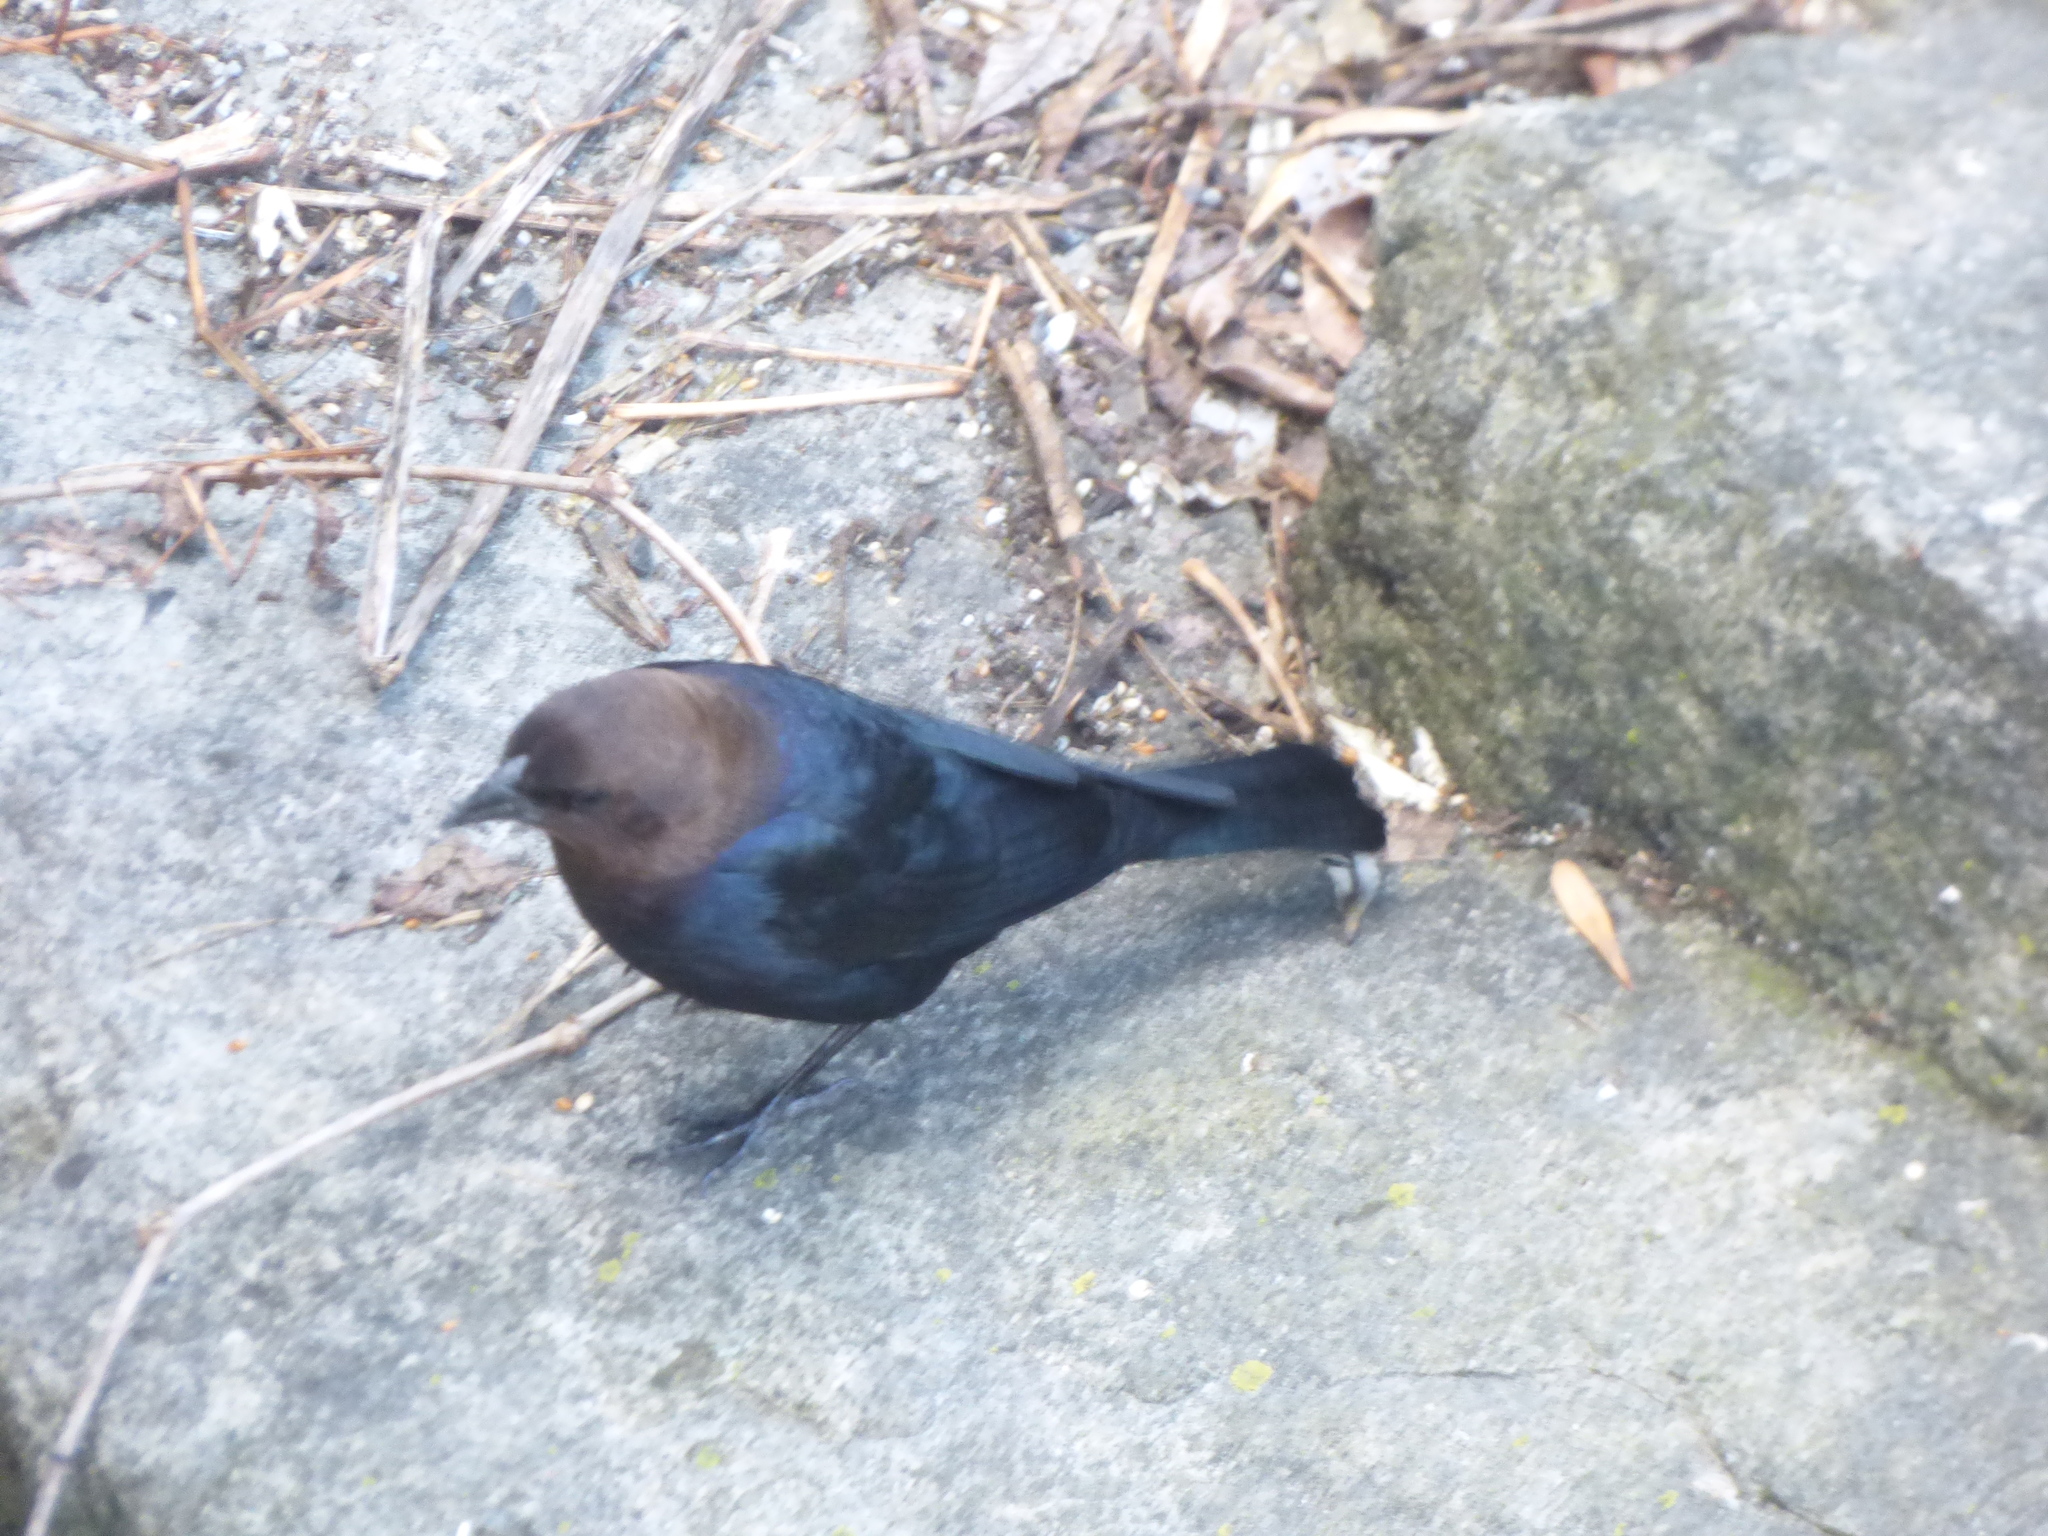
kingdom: Animalia
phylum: Chordata
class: Aves
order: Passeriformes
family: Icteridae
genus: Molothrus
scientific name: Molothrus ater
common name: Brown-headed cowbird
